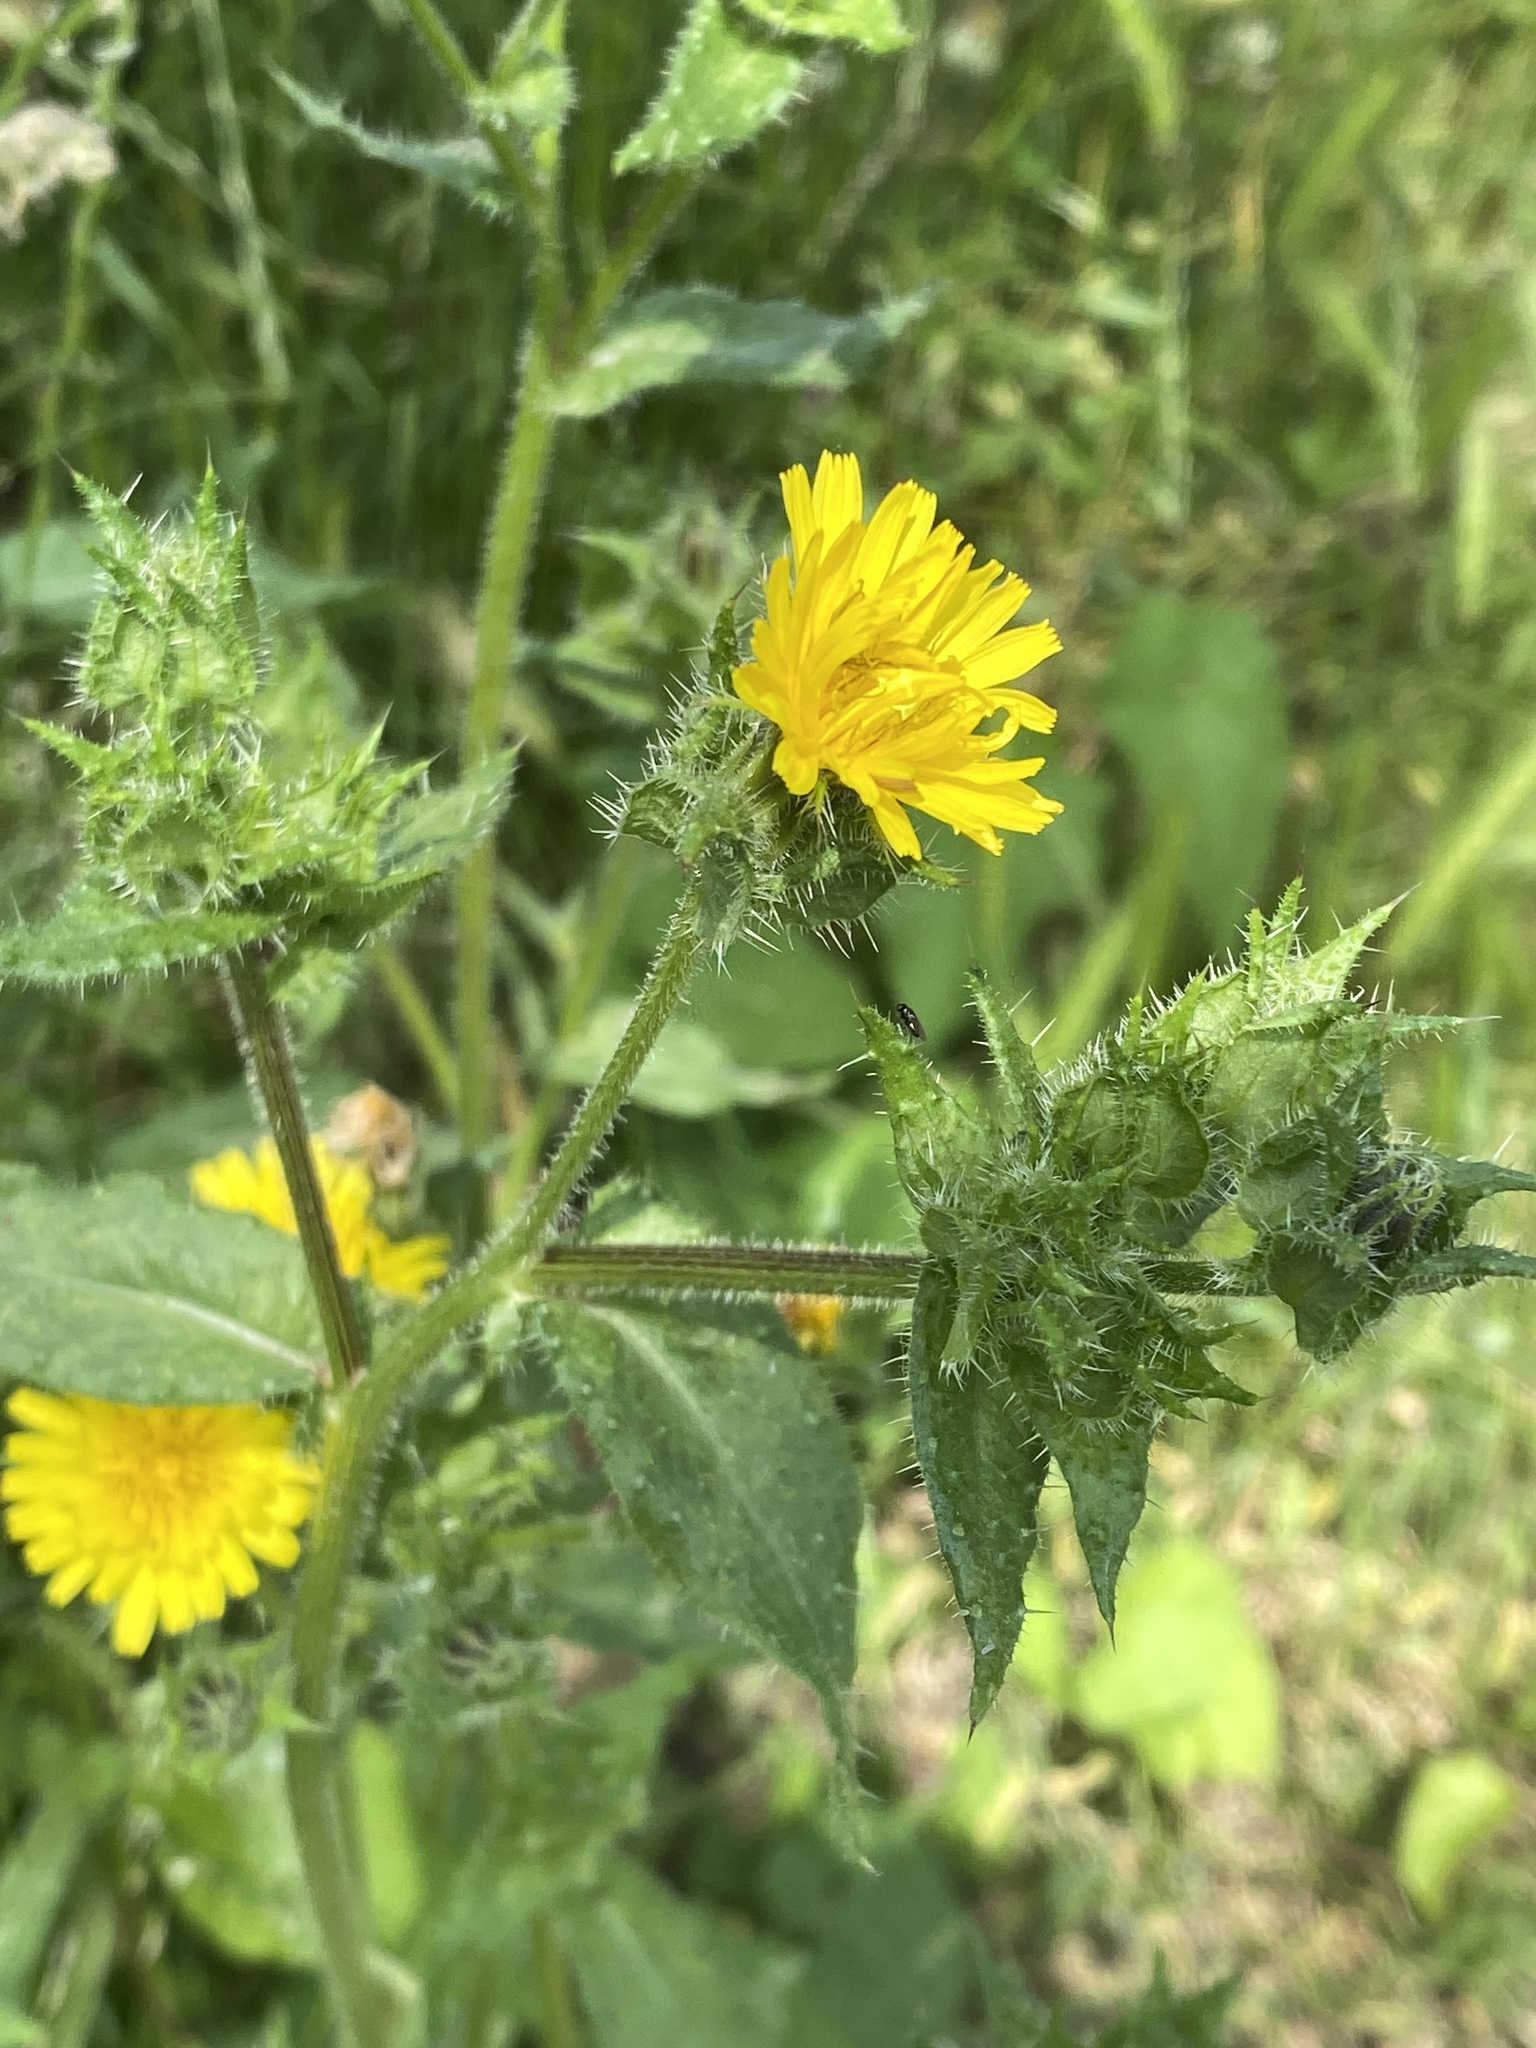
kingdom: Plantae
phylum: Tracheophyta
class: Magnoliopsida
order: Asterales
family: Asteraceae
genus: Helminthotheca
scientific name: Helminthotheca echioides
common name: Ox-tongue
